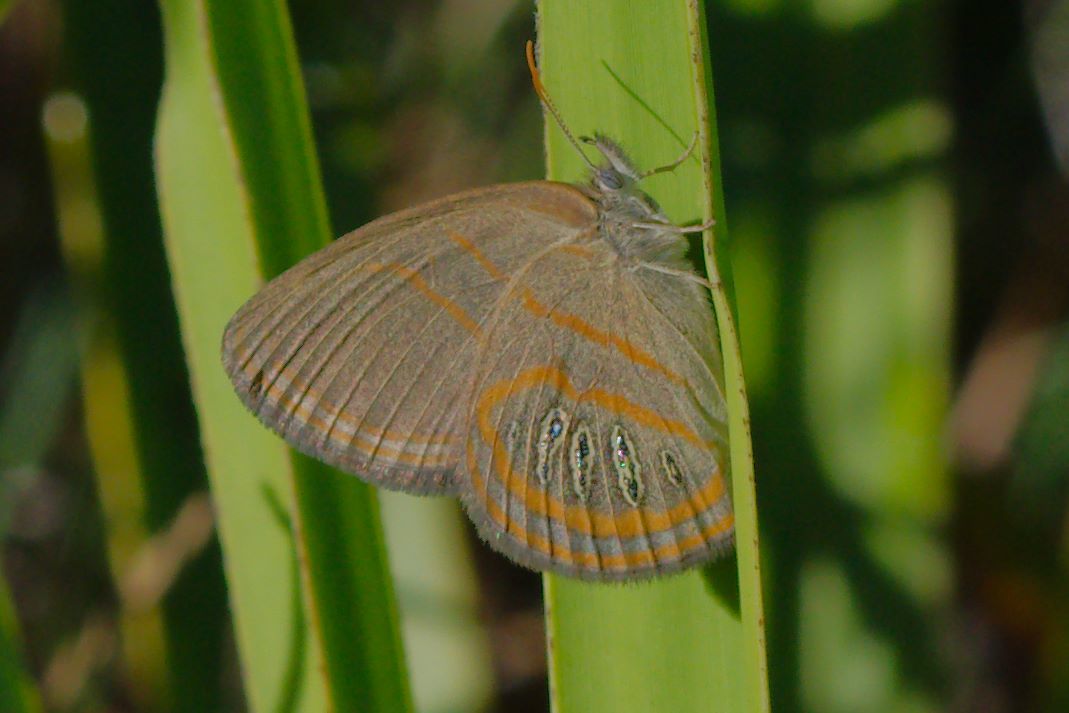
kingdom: Animalia
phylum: Arthropoda
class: Insecta
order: Lepidoptera
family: Nymphalidae
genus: Euptychia
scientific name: Euptychia phocion
